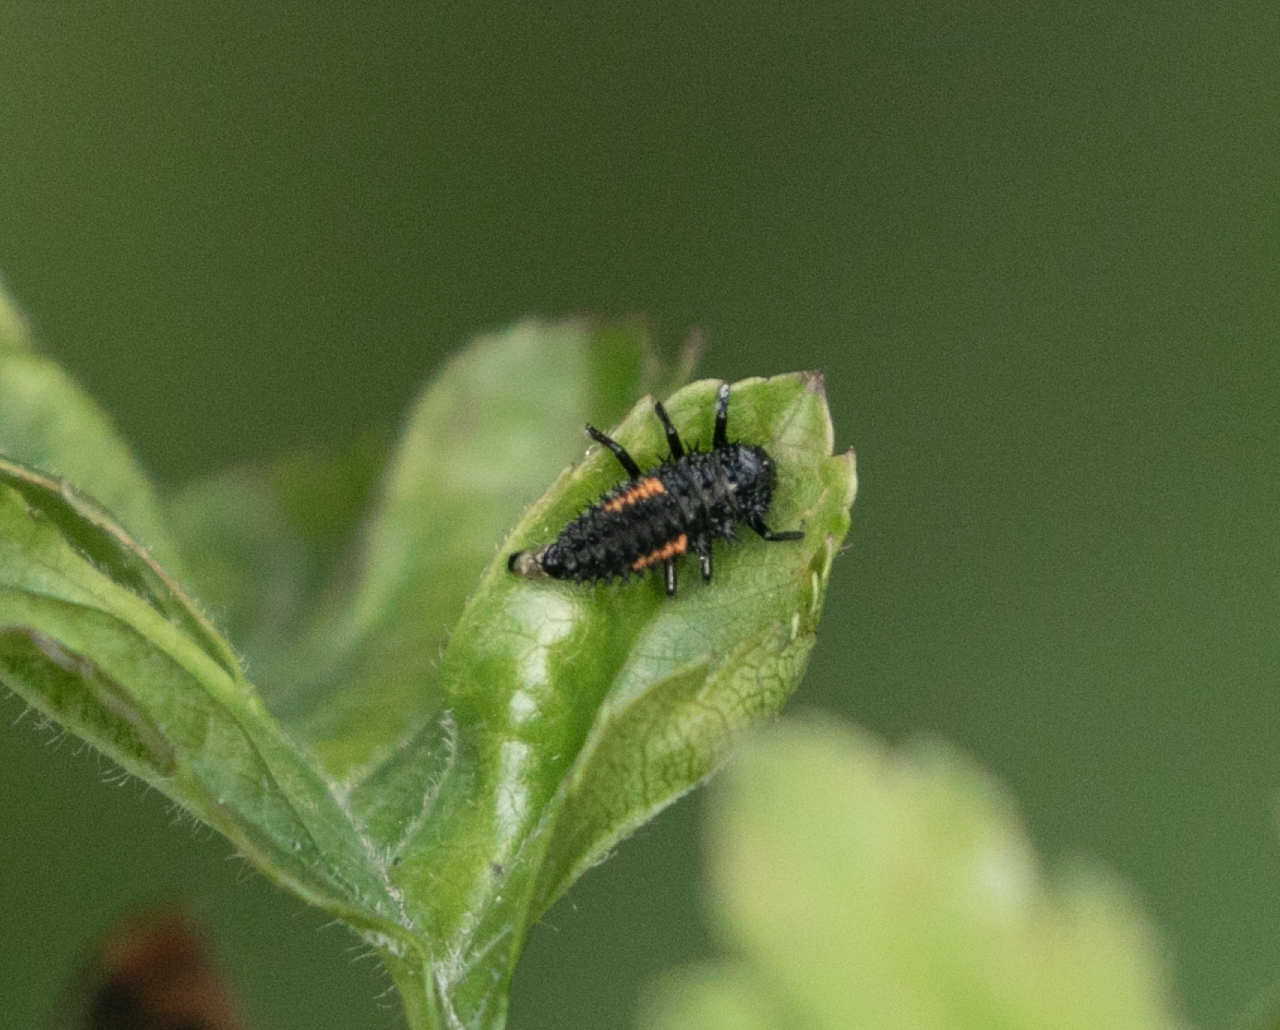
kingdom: Animalia
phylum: Arthropoda
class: Insecta
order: Coleoptera
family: Coccinellidae
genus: Harmonia
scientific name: Harmonia axyridis
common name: Harlequin ladybird
